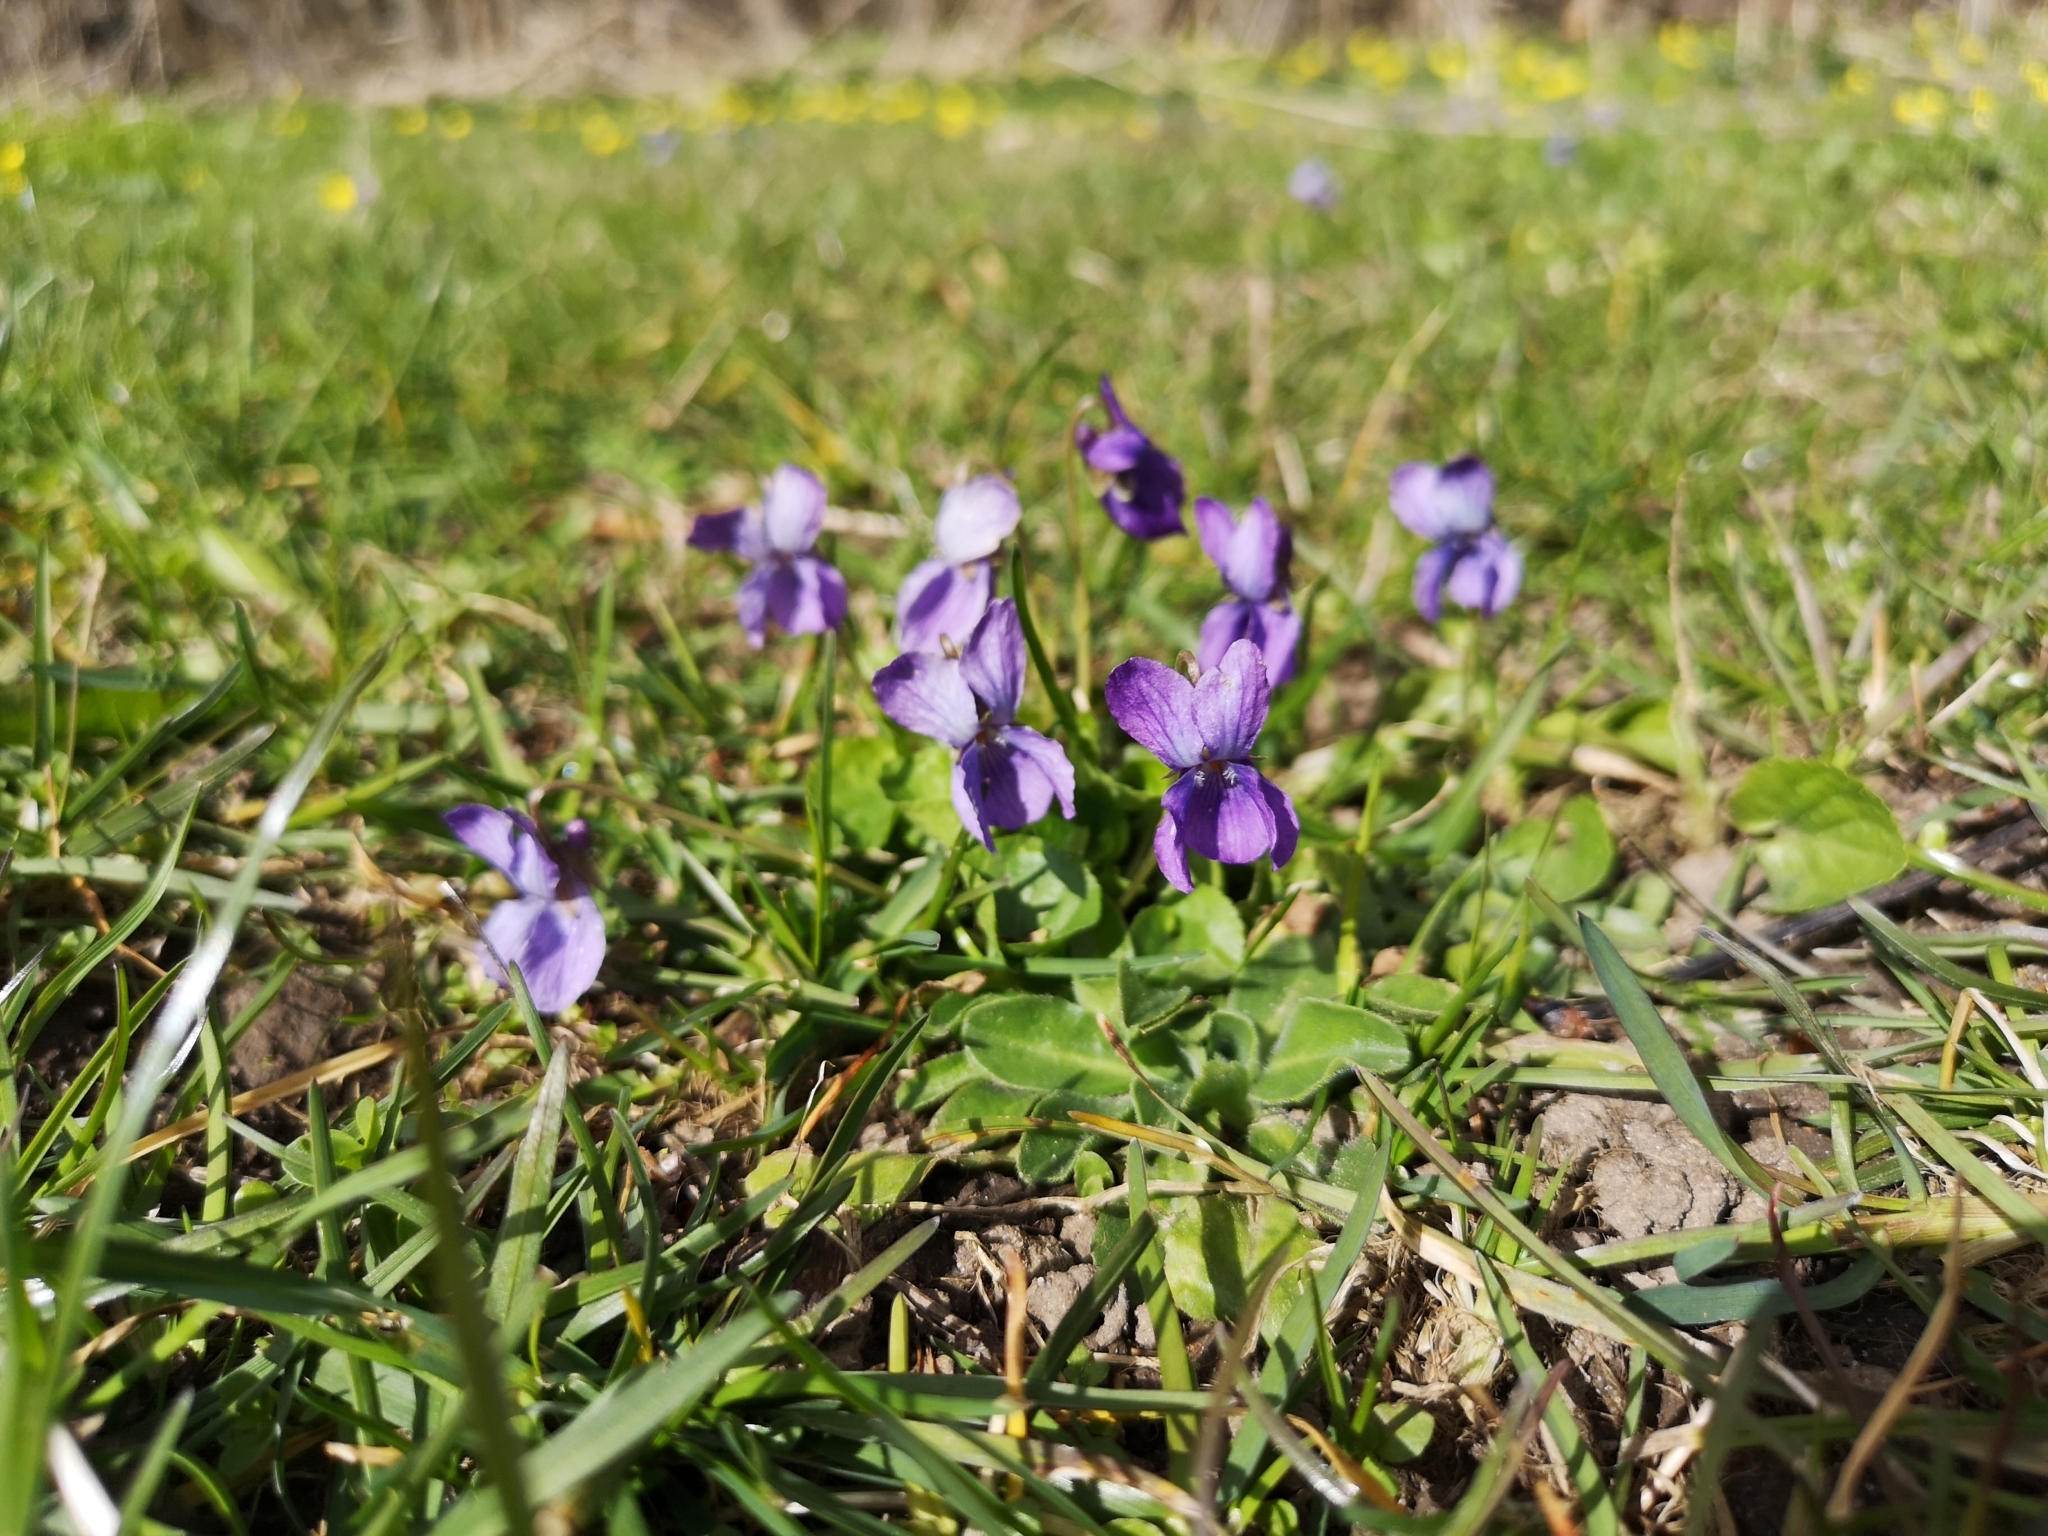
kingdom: Plantae
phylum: Tracheophyta
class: Magnoliopsida
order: Malpighiales
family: Violaceae
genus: Viola
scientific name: Viola odorata
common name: Sweet violet
